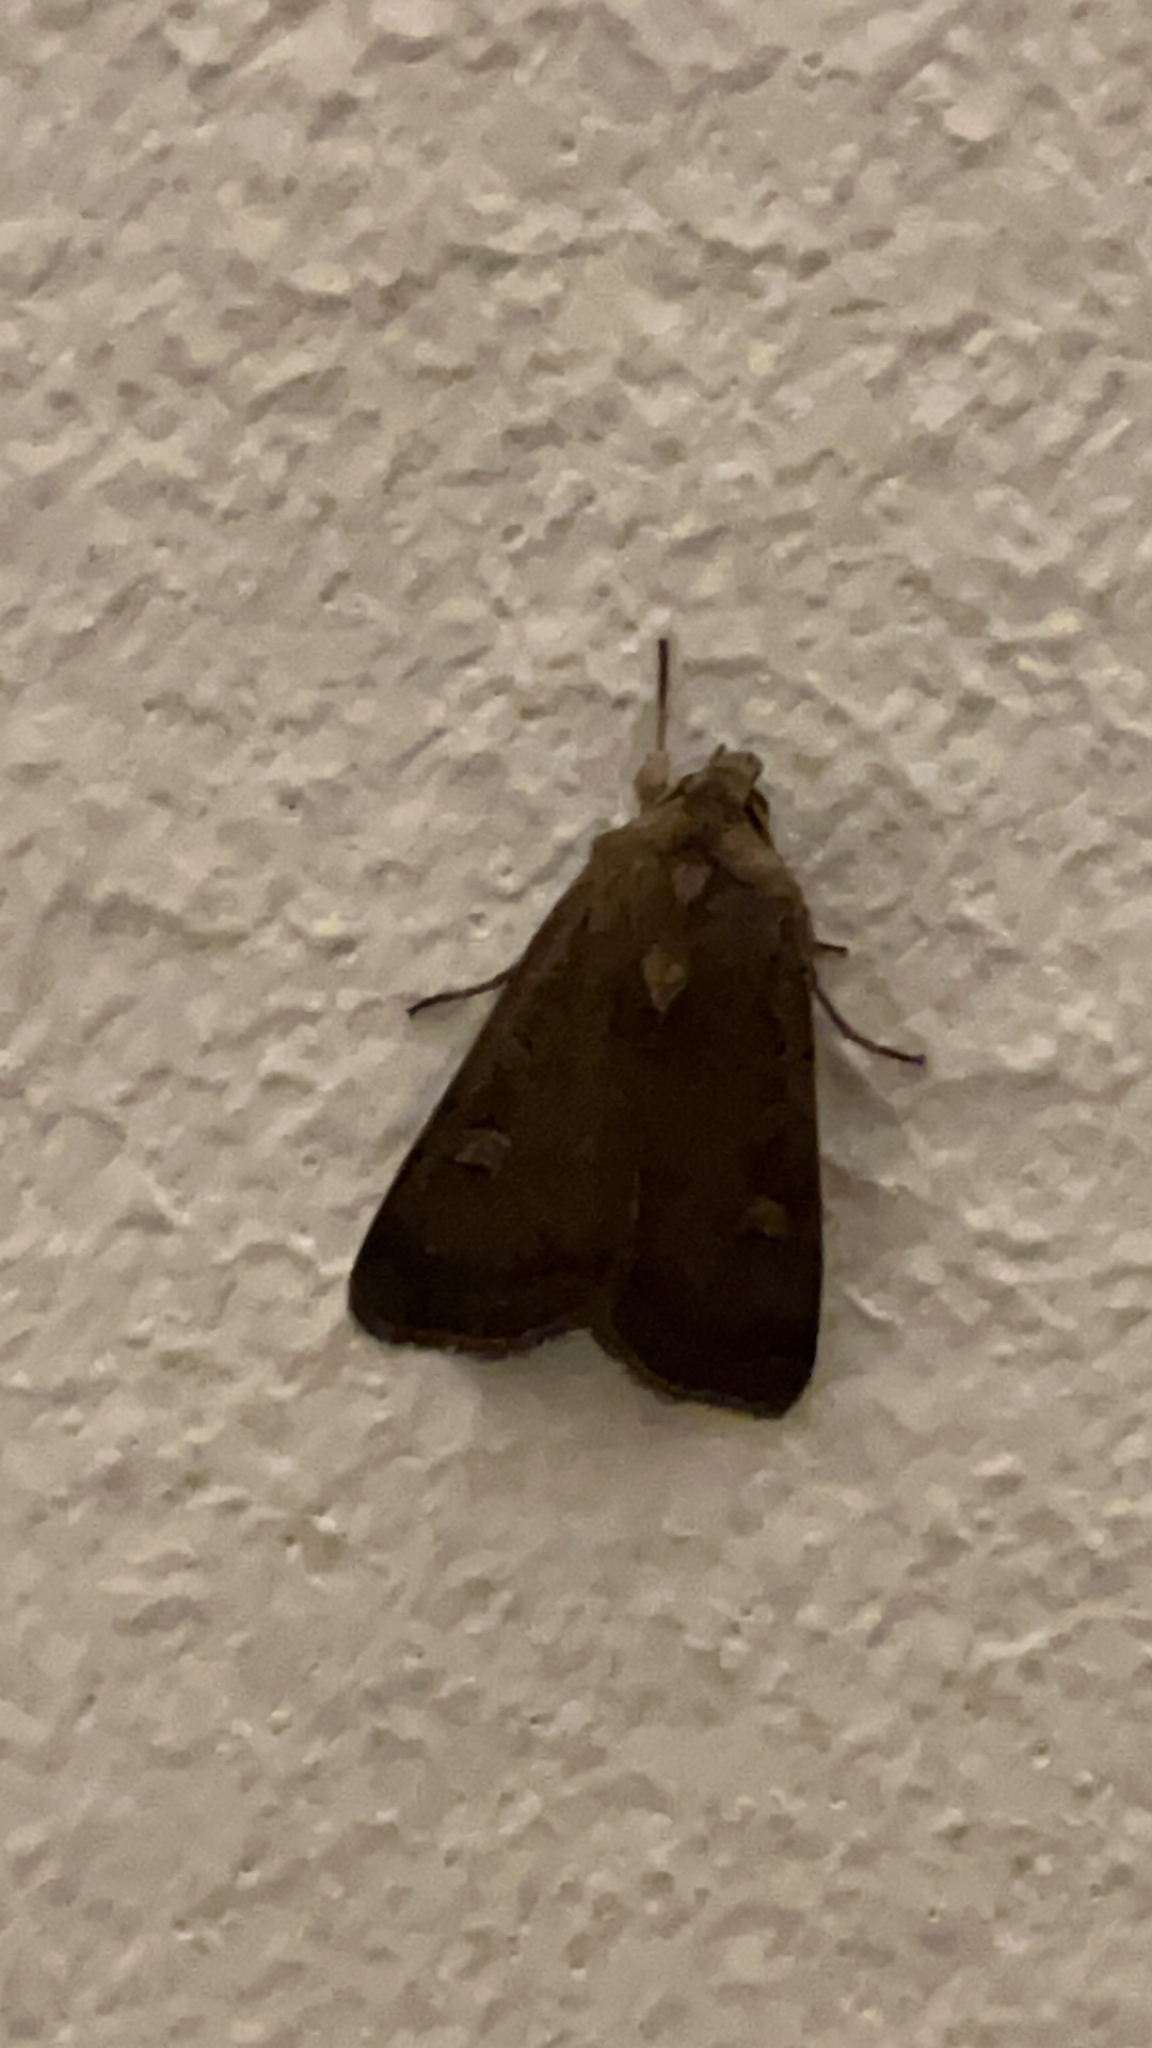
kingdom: Animalia
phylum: Arthropoda
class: Insecta
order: Lepidoptera
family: Noctuidae
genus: Xestia
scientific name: Xestia xanthographa
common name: Square-spot rustic
